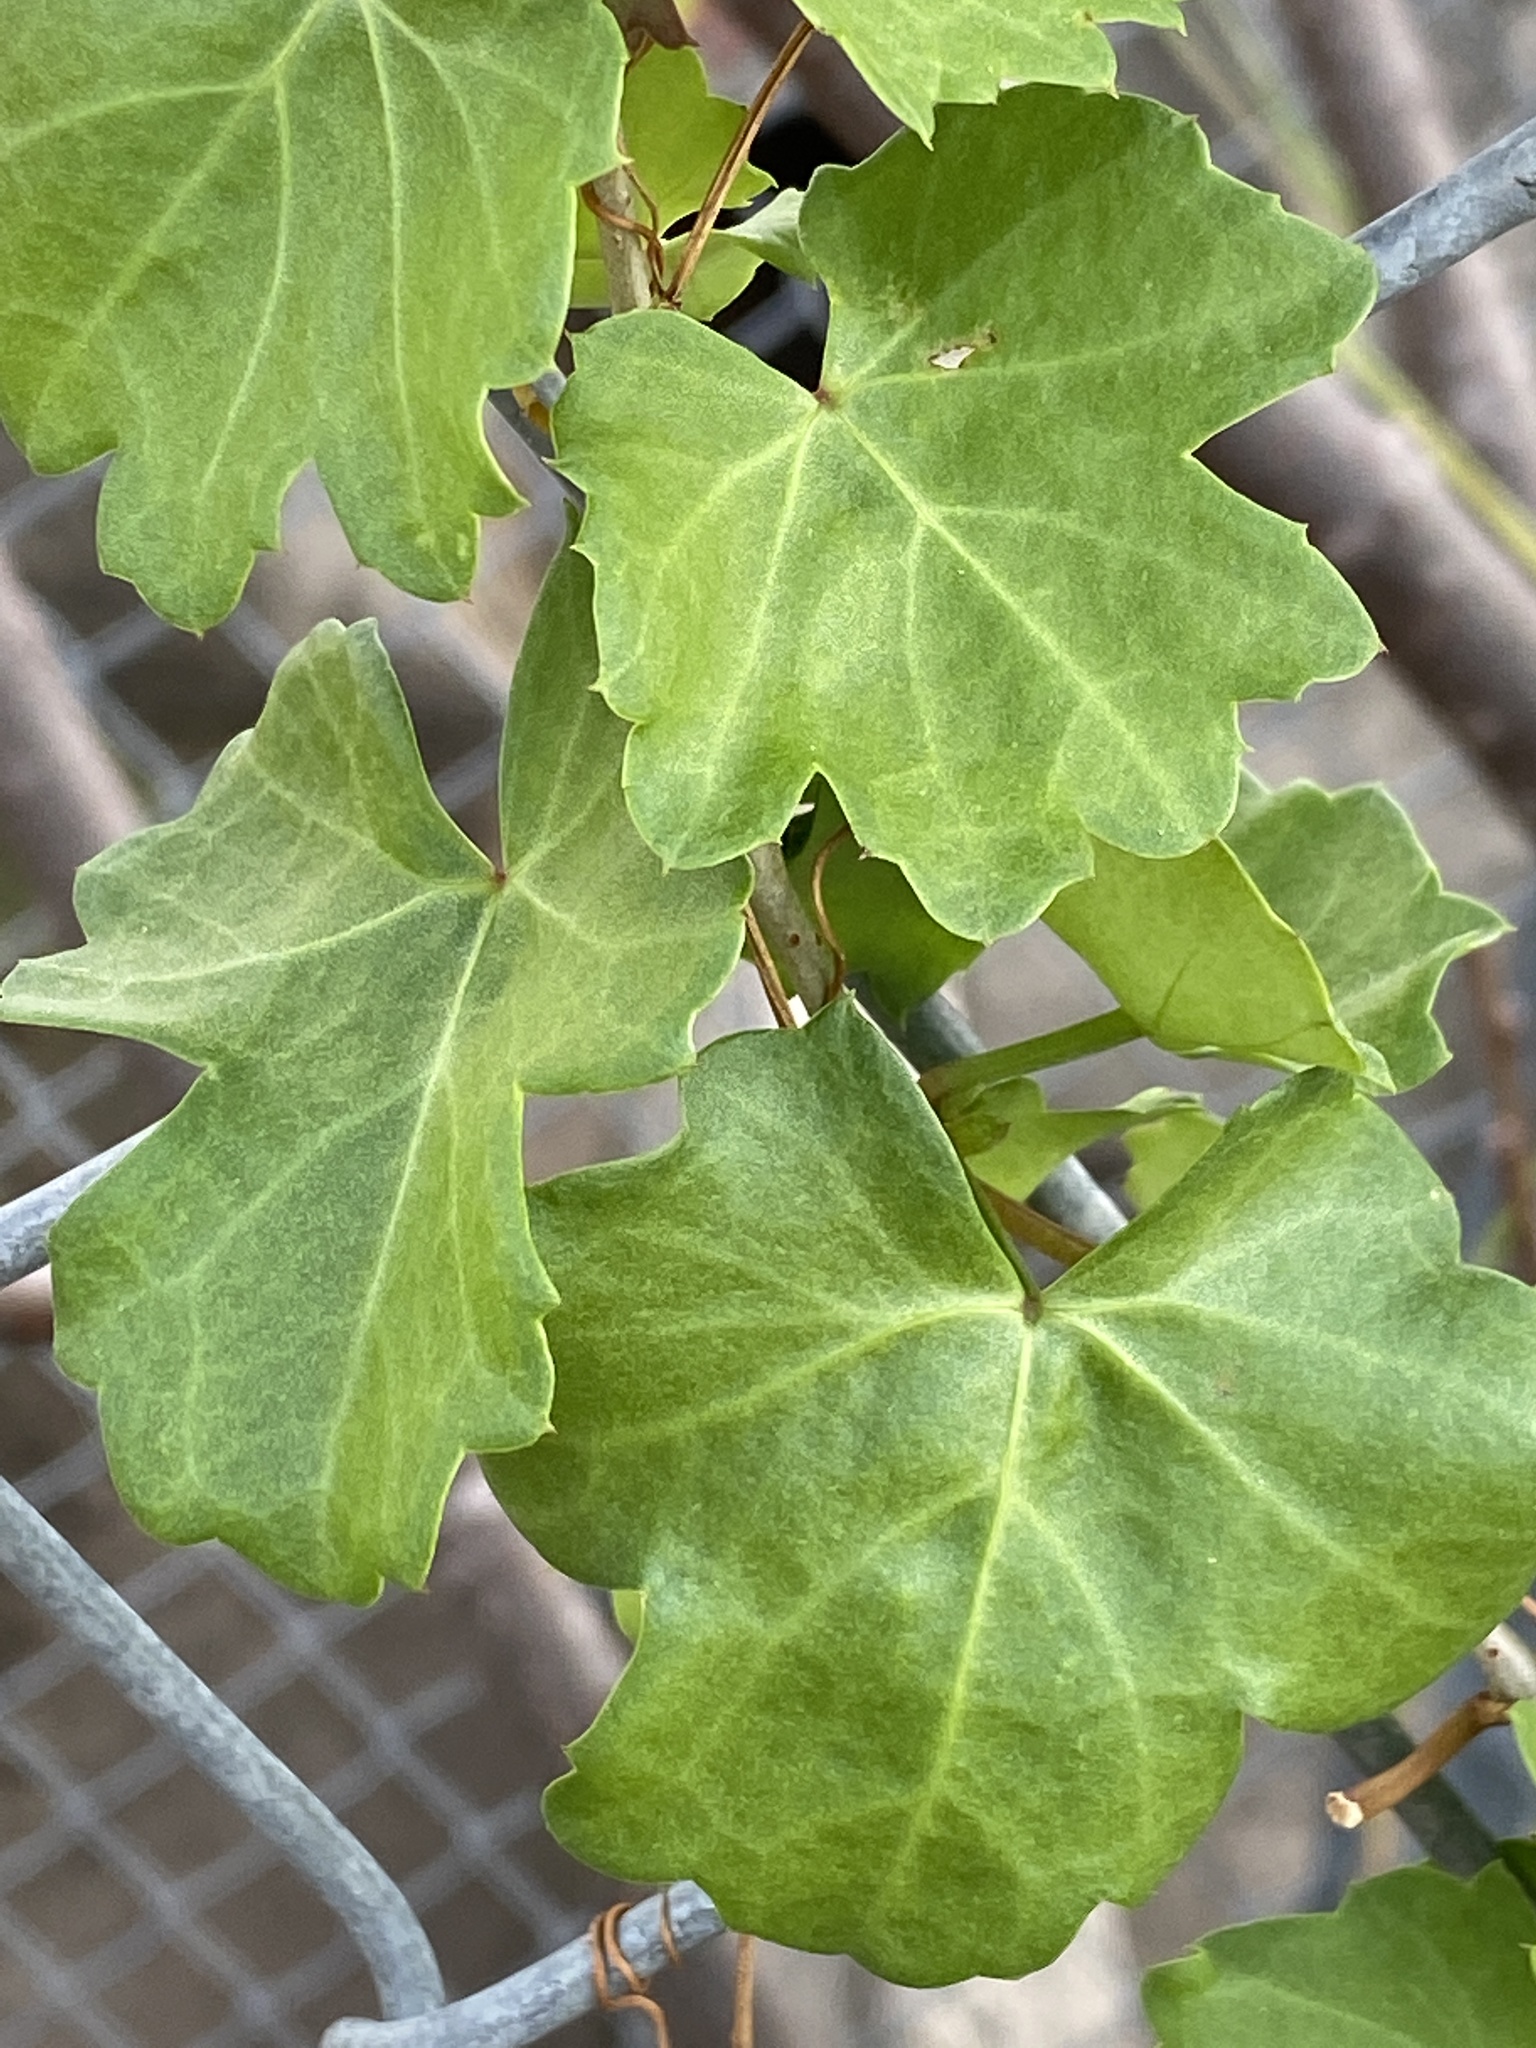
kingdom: Plantae
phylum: Tracheophyta
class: Magnoliopsida
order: Vitales
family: Vitaceae
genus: Cissus
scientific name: Cissus trifoliata
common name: Vine-sorrel
